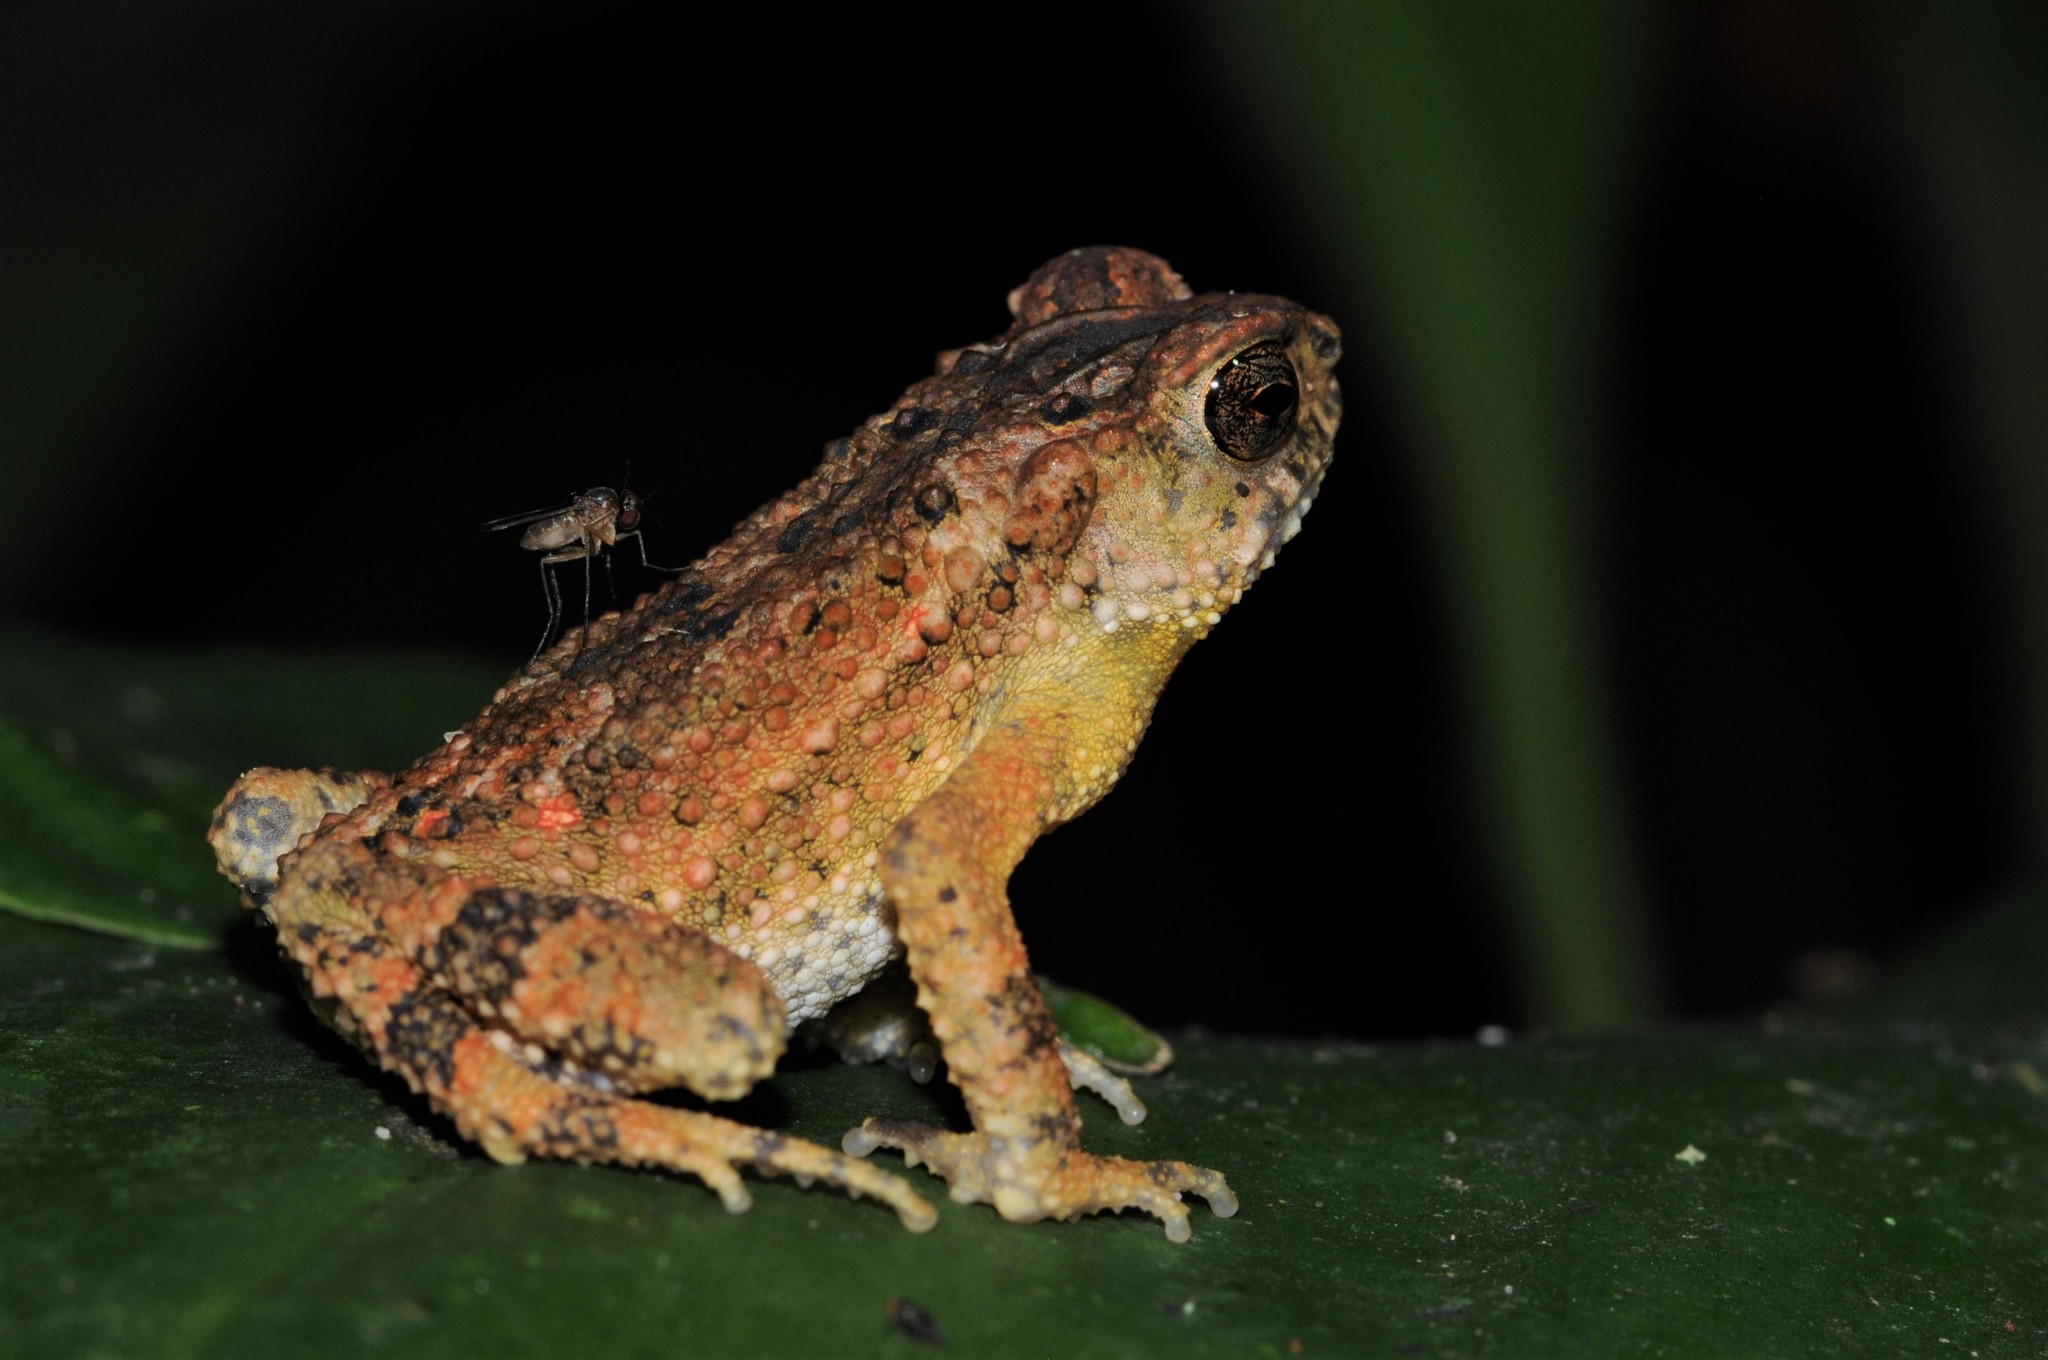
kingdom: Animalia
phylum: Chordata
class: Amphibia
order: Anura
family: Bufonidae
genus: Ingerophrynus
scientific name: Ingerophrynus parvus
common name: Dwarf lesser stream toad
